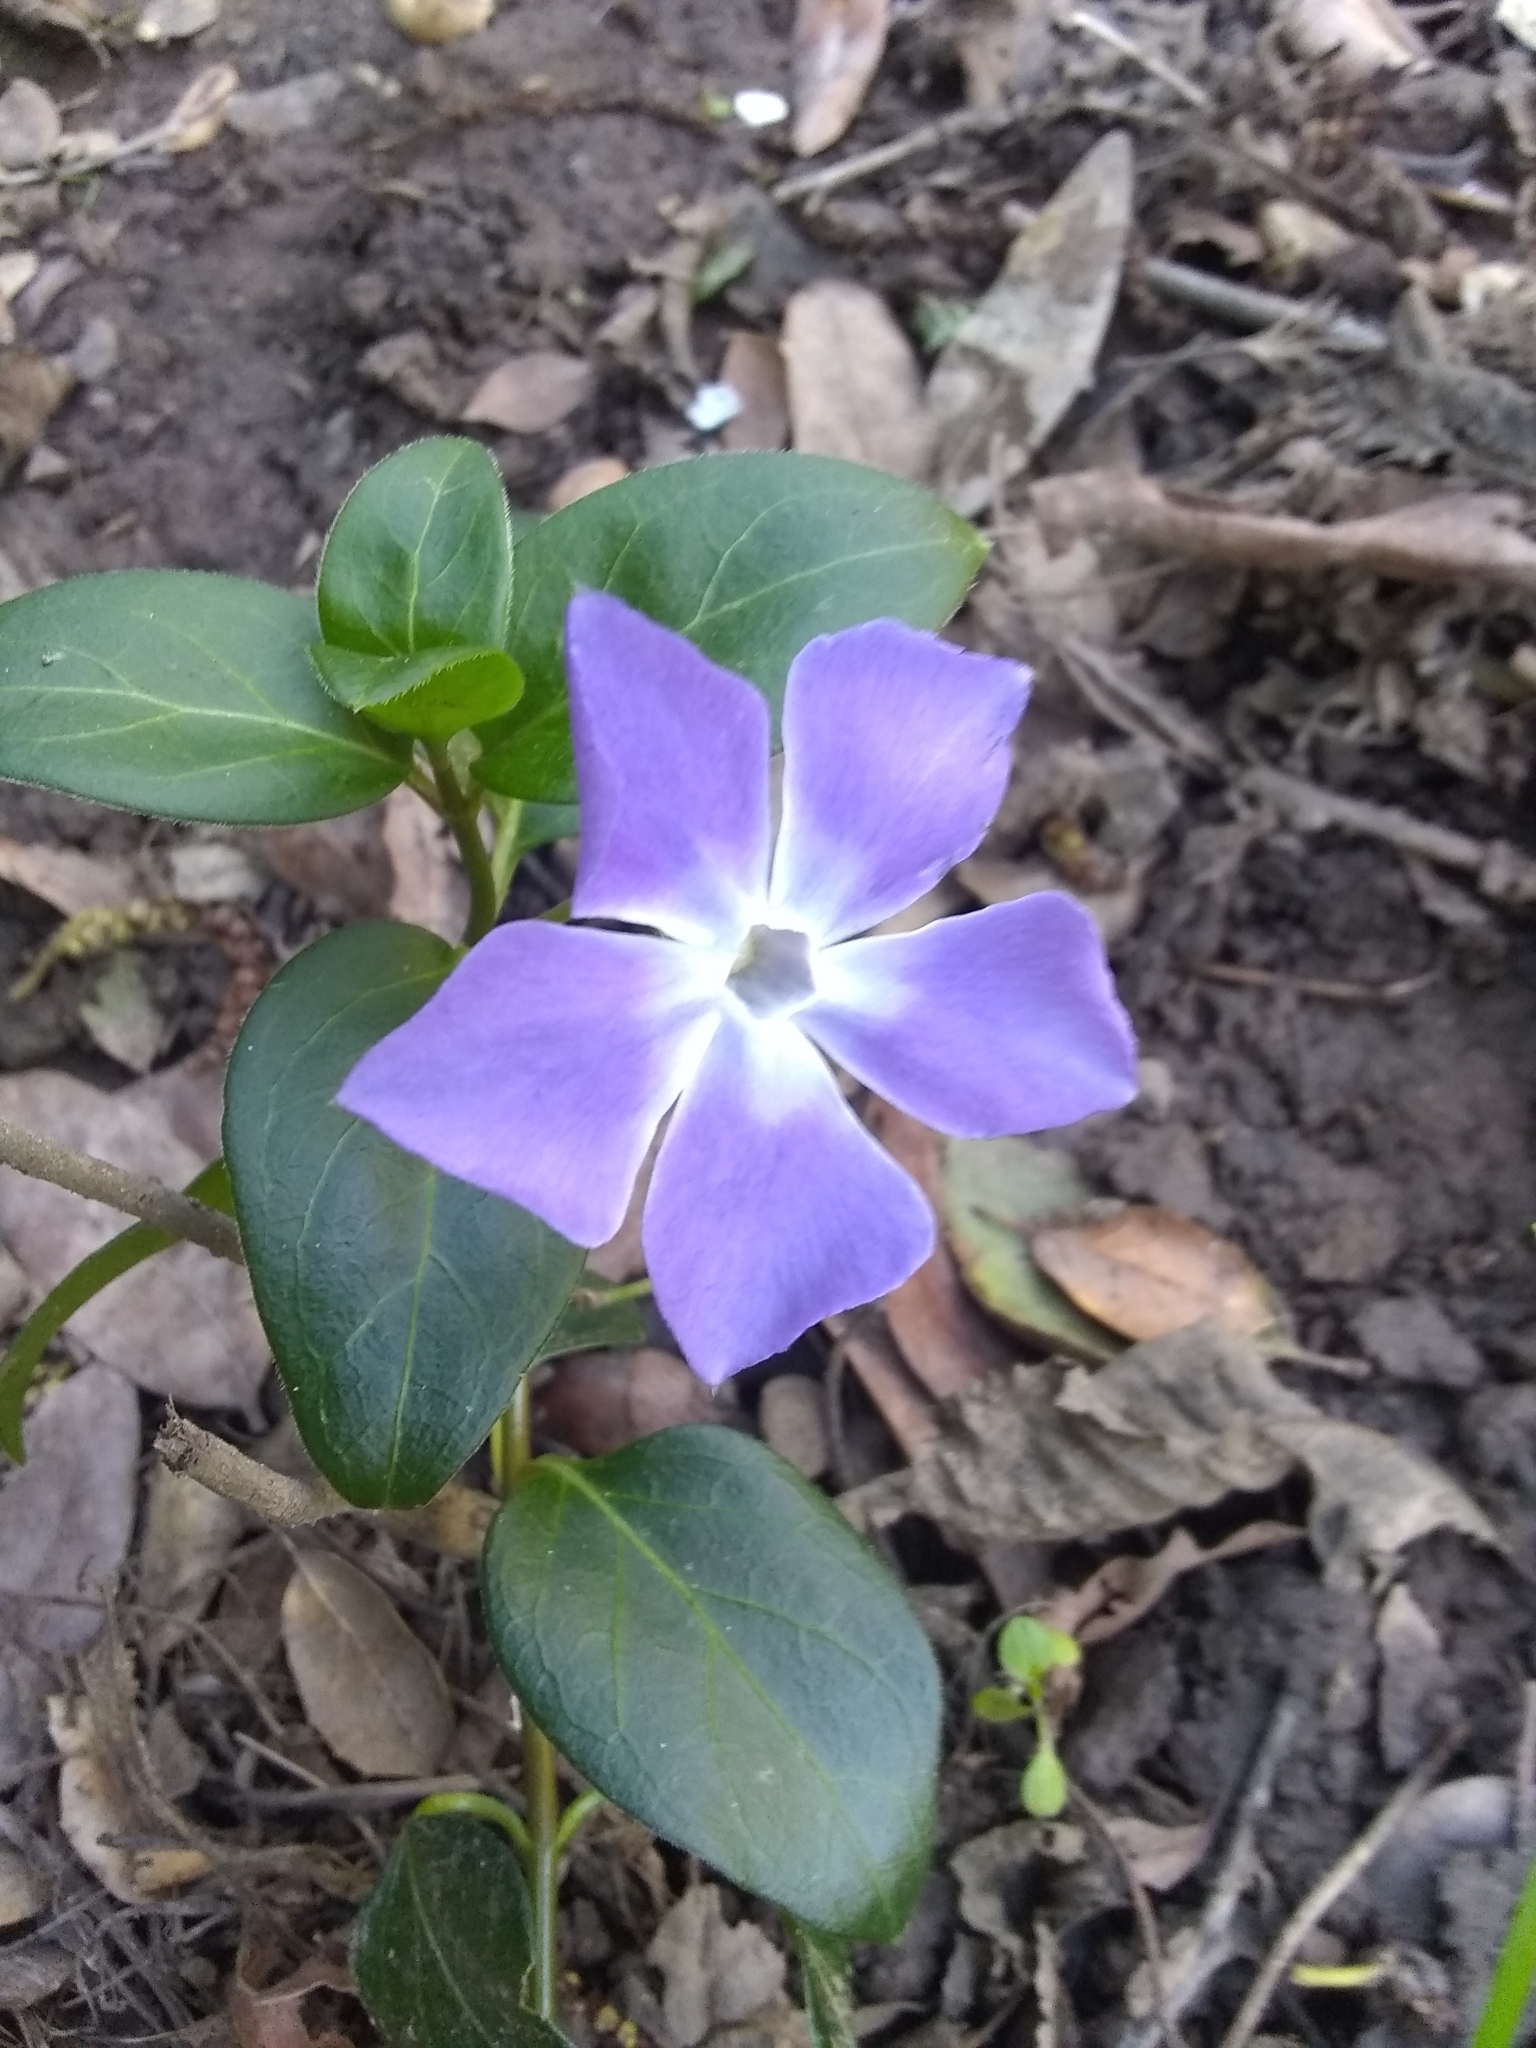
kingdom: Plantae
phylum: Tracheophyta
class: Magnoliopsida
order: Gentianales
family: Apocynaceae
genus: Vinca
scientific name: Vinca major
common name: Greater periwinkle
